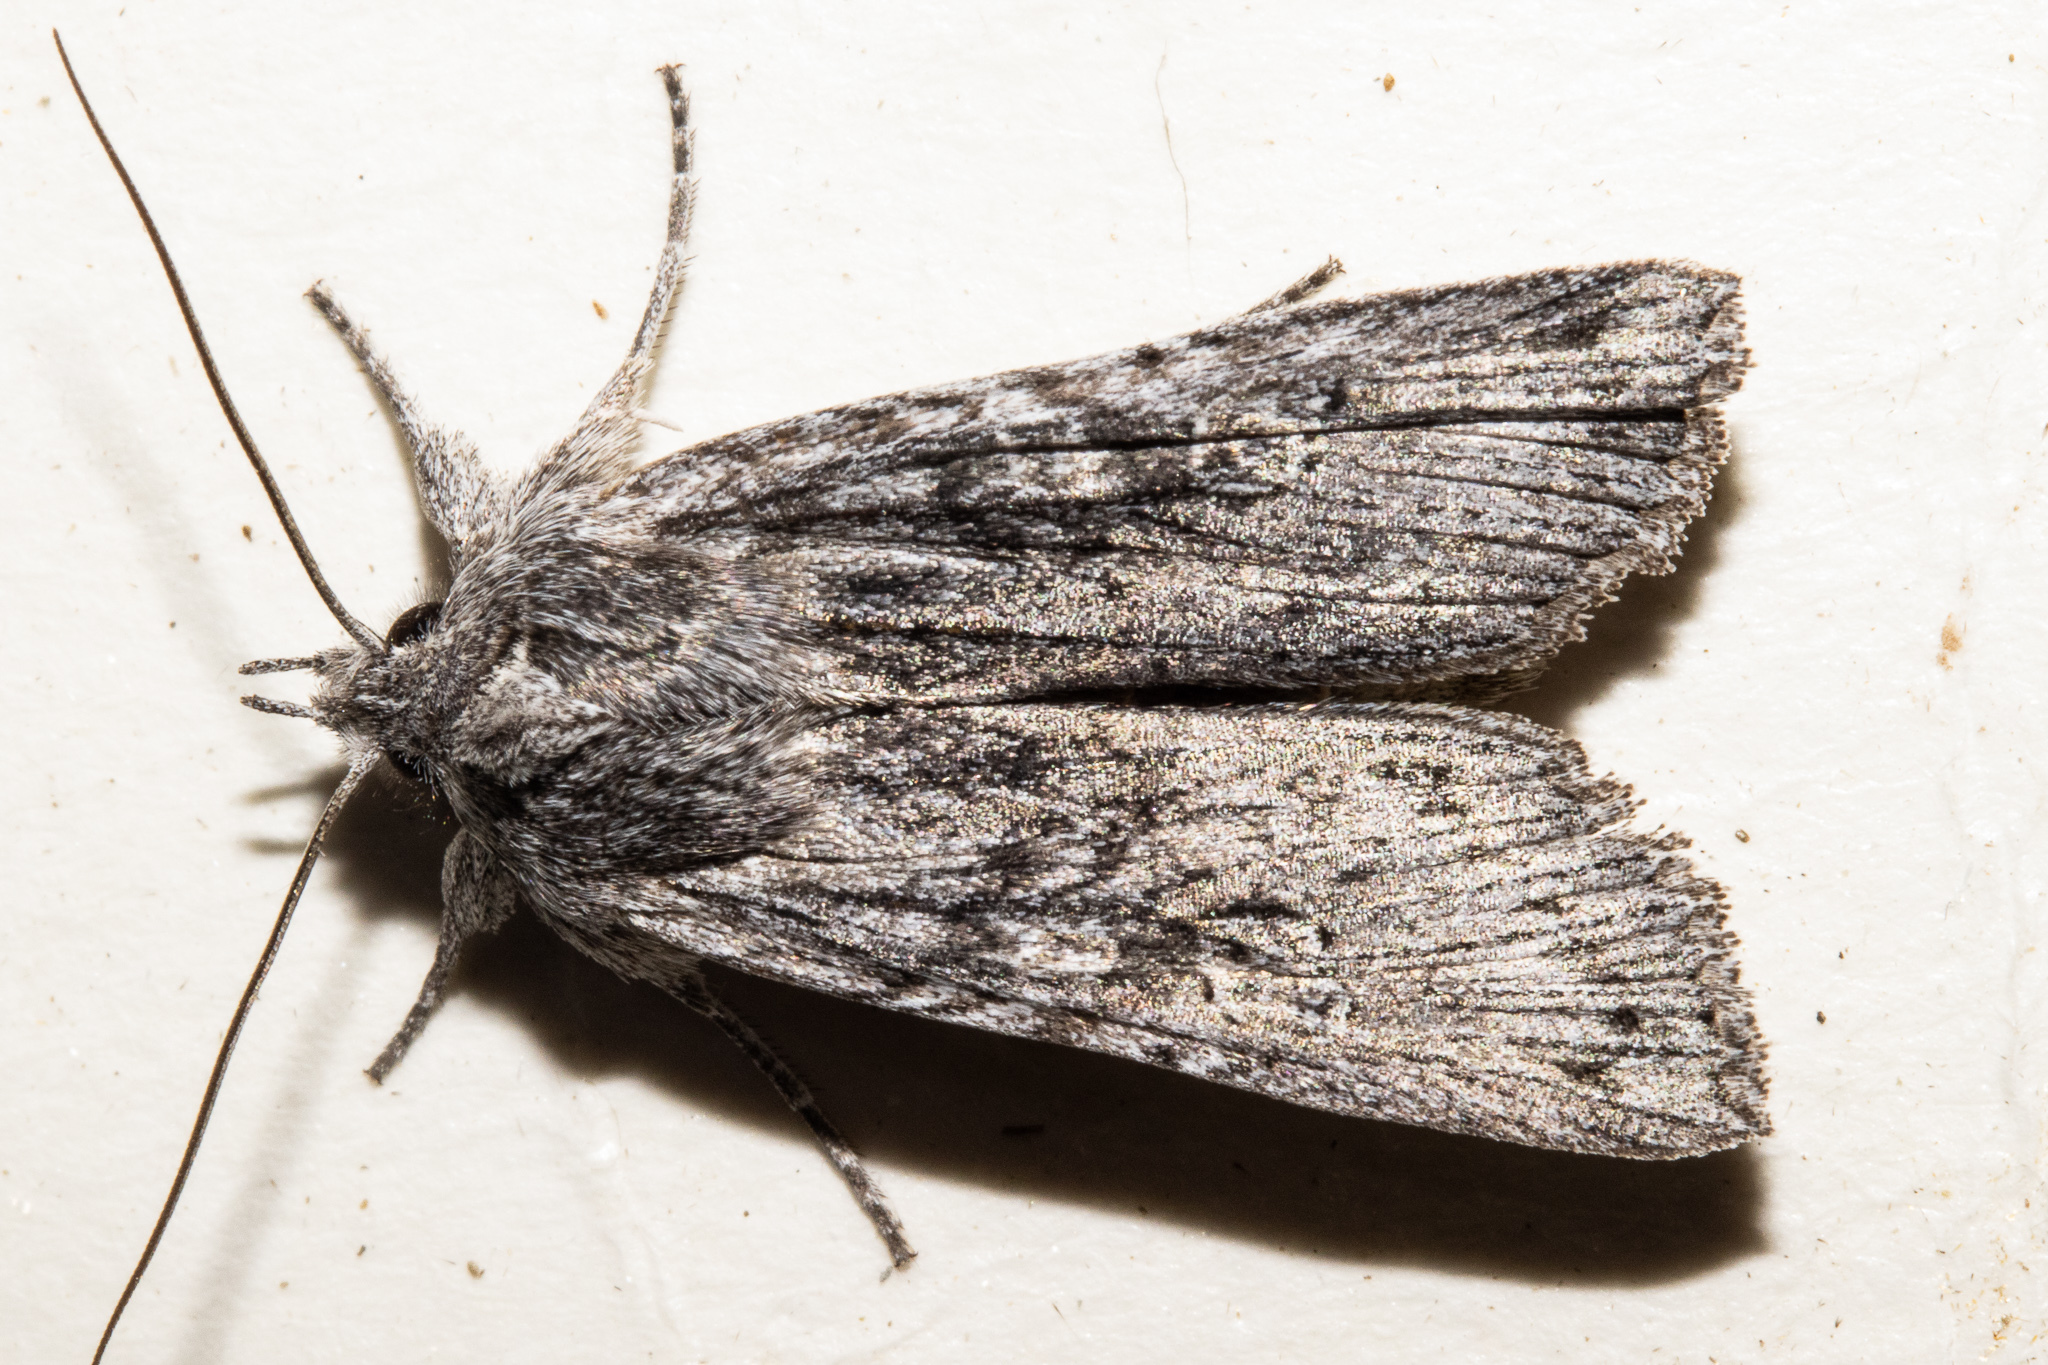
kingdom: Animalia
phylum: Arthropoda
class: Insecta
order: Lepidoptera
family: Noctuidae
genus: Physetica
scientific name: Physetica phricias
